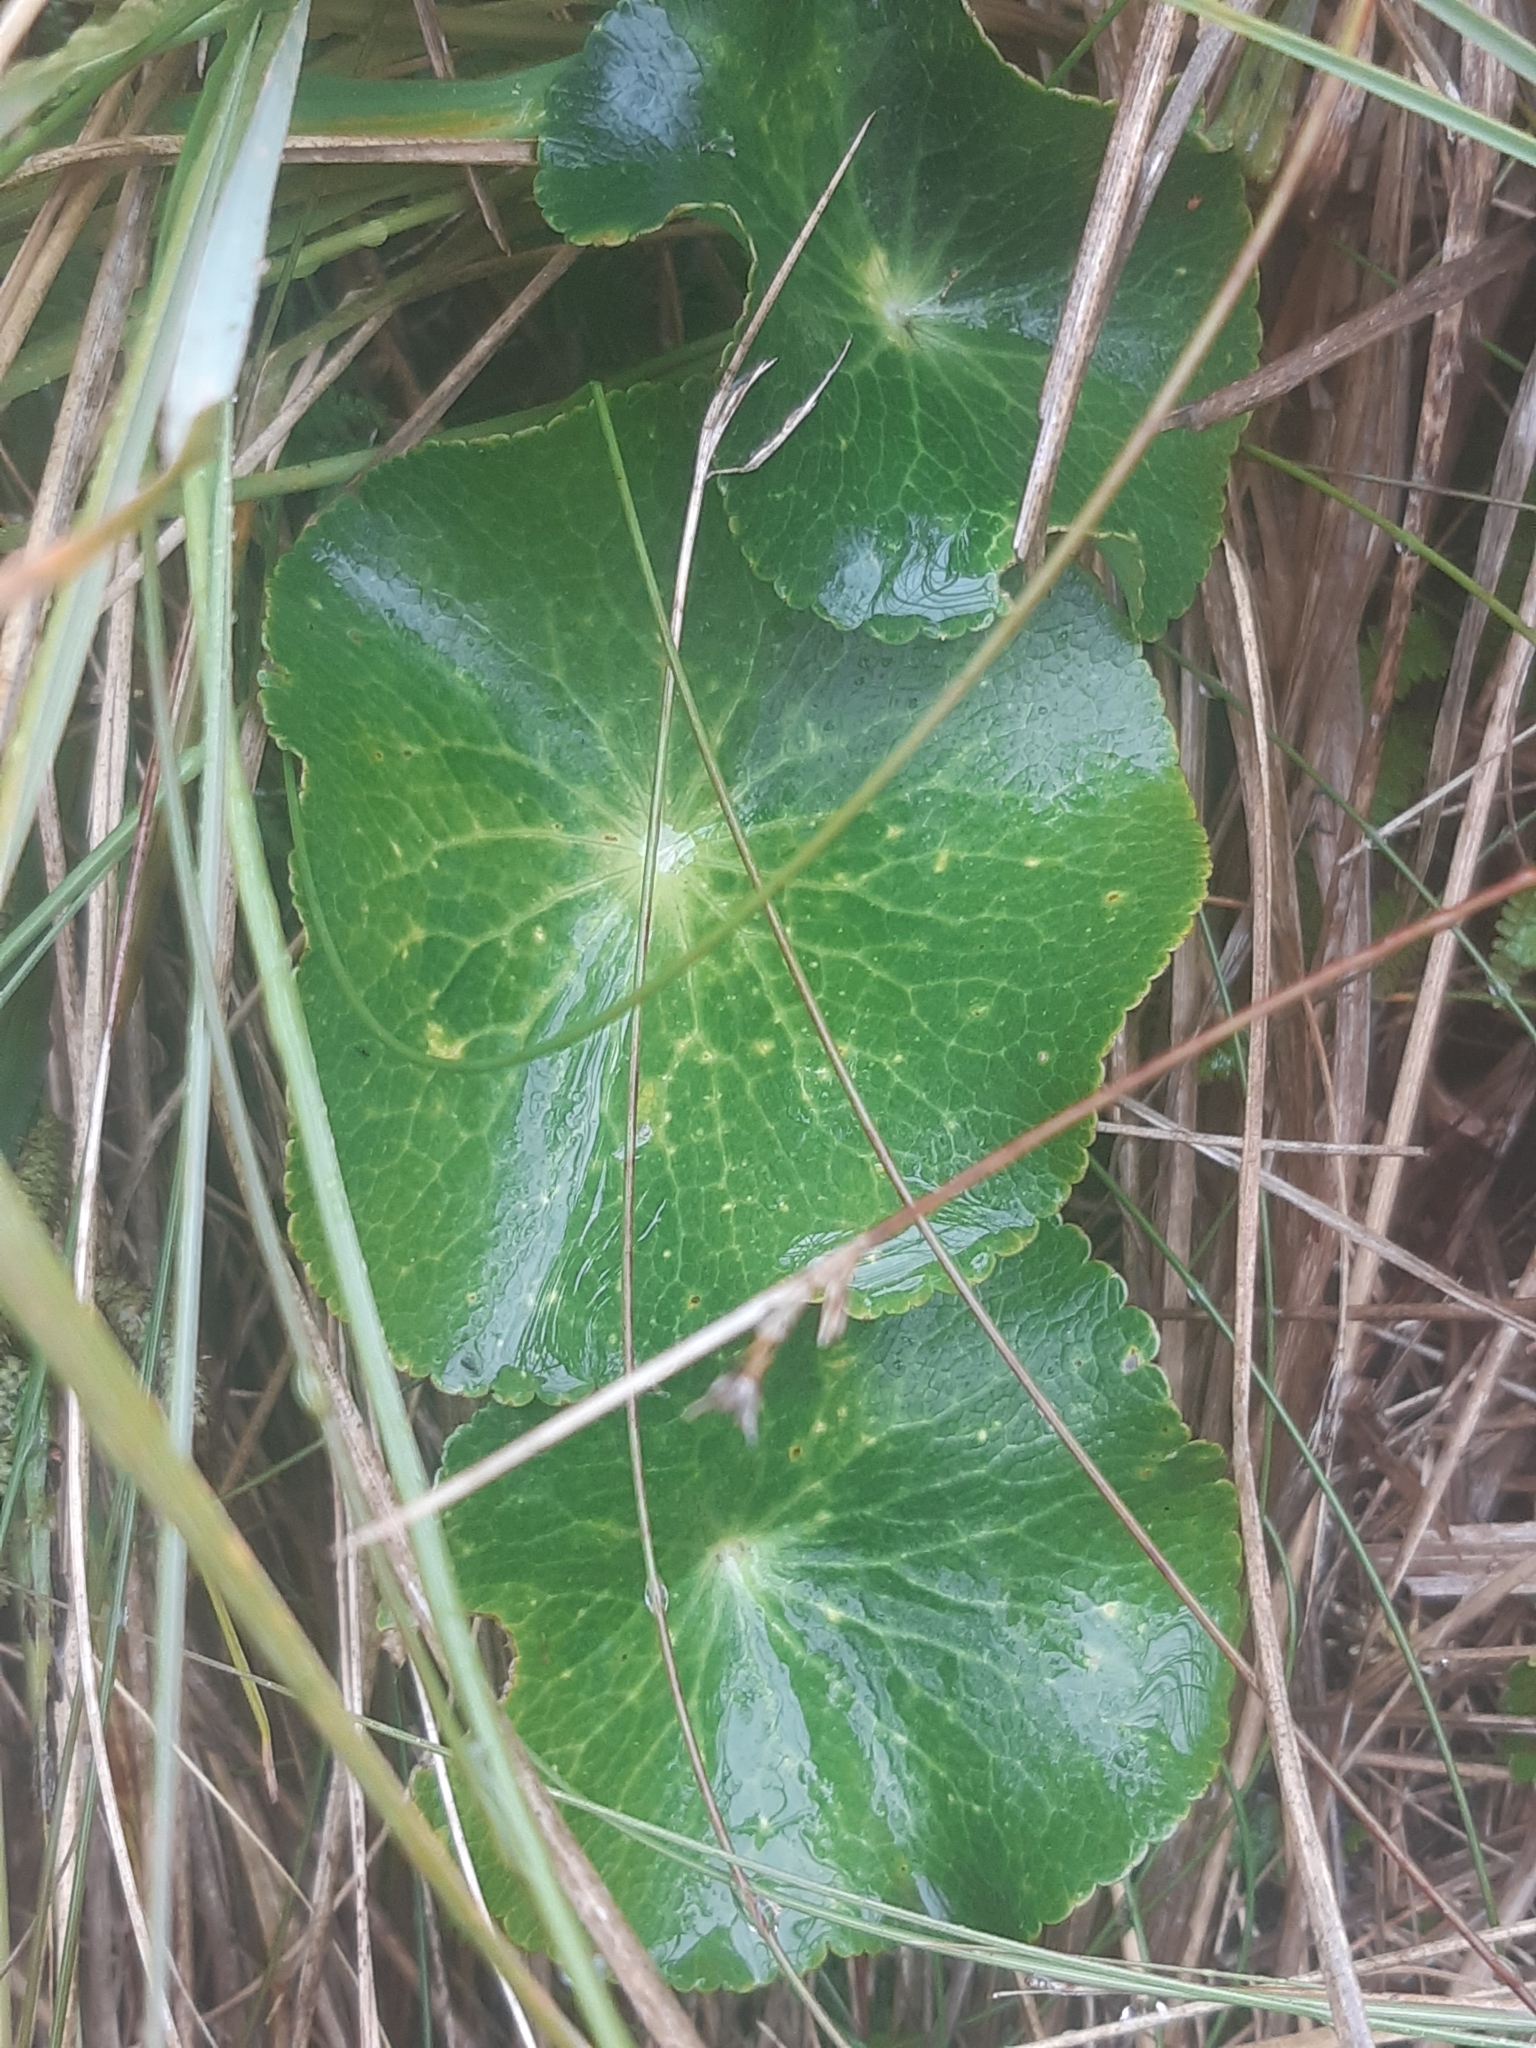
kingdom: Plantae
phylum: Tracheophyta
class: Magnoliopsida
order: Ranunculales
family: Ranunculaceae
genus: Ranunculus
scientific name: Ranunculus lyallii
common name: Mountain-lily
